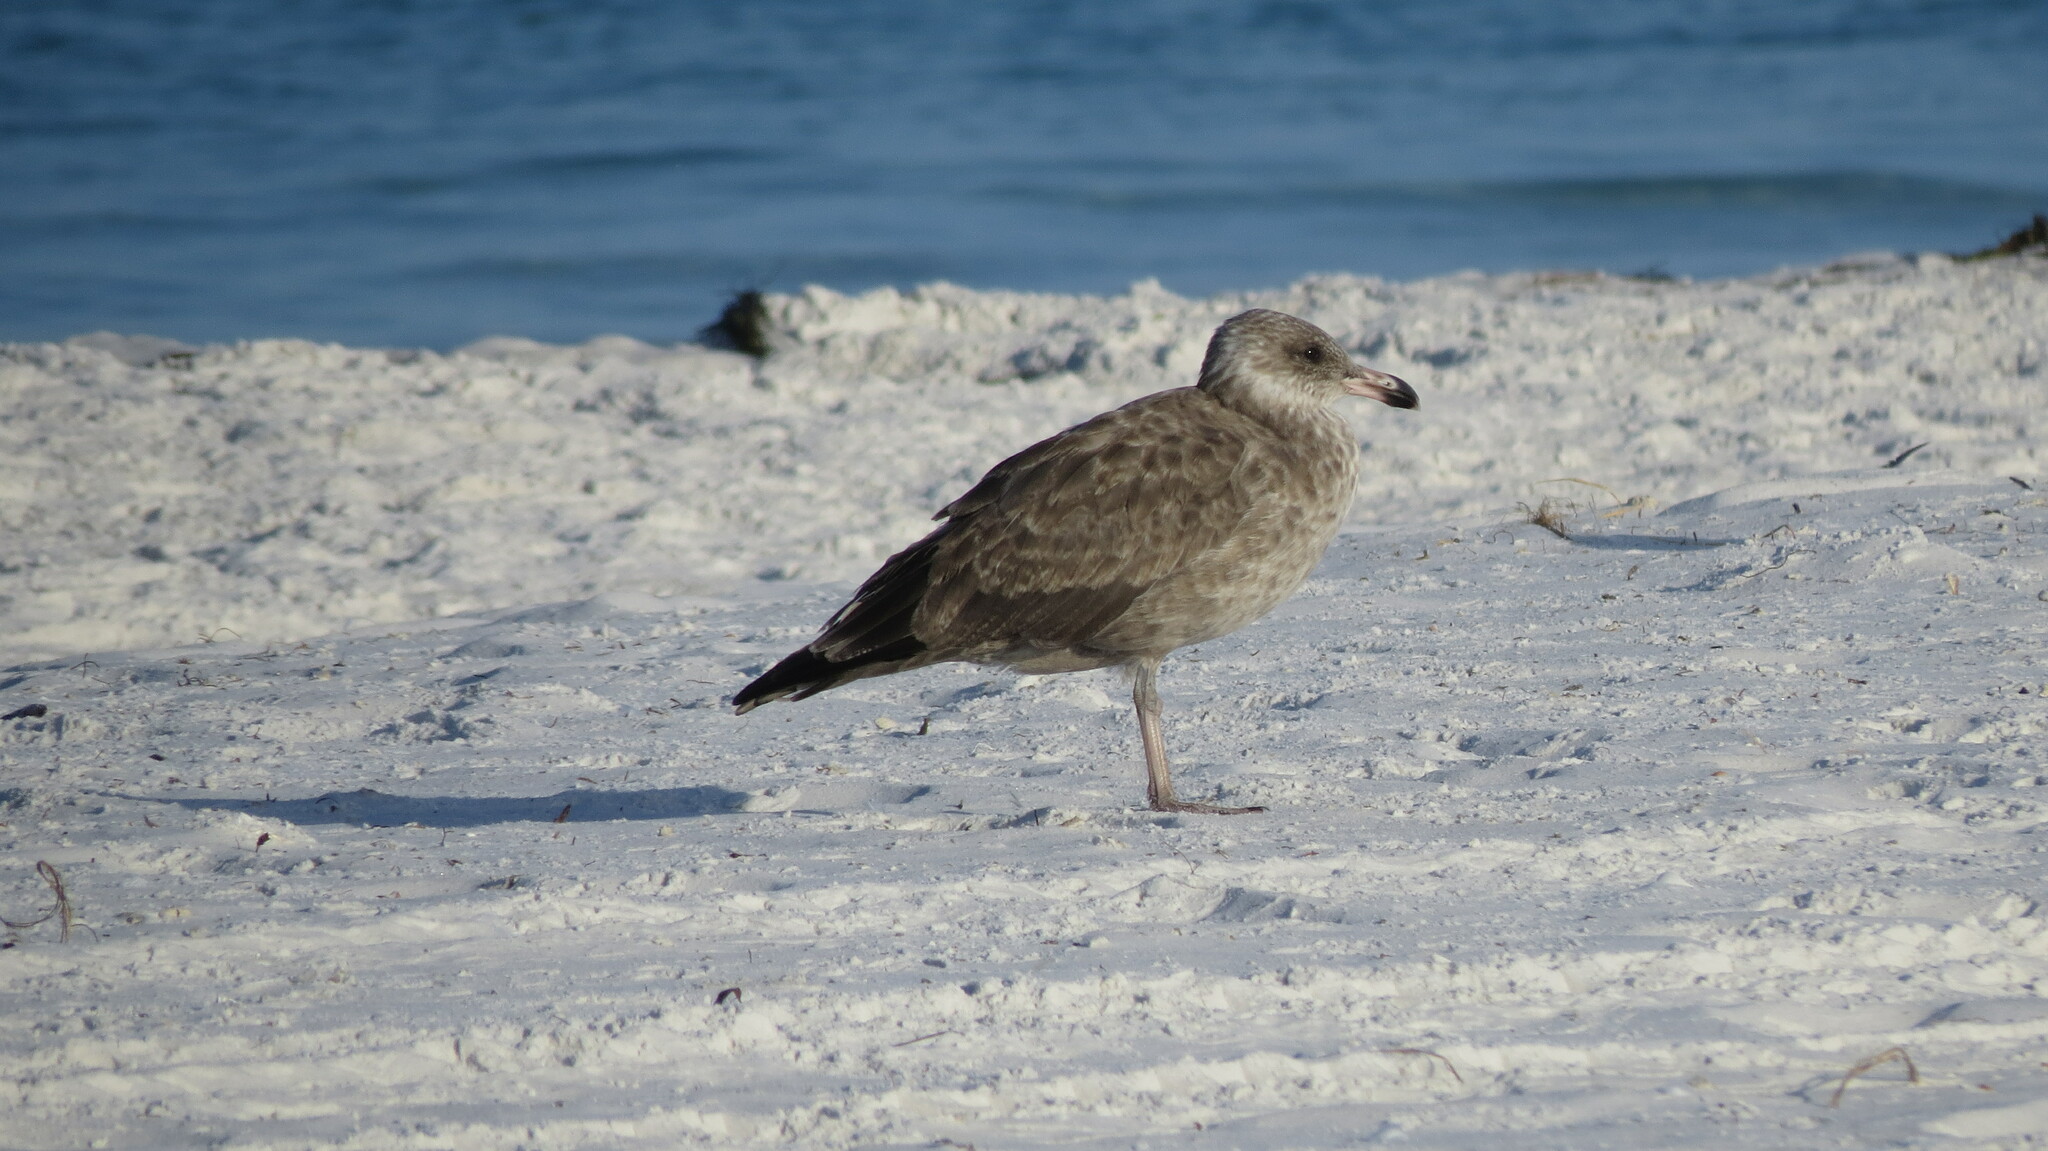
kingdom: Animalia
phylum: Chordata
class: Aves
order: Charadriiformes
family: Laridae
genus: Larus
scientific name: Larus smithsonianus
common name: American herring gull
